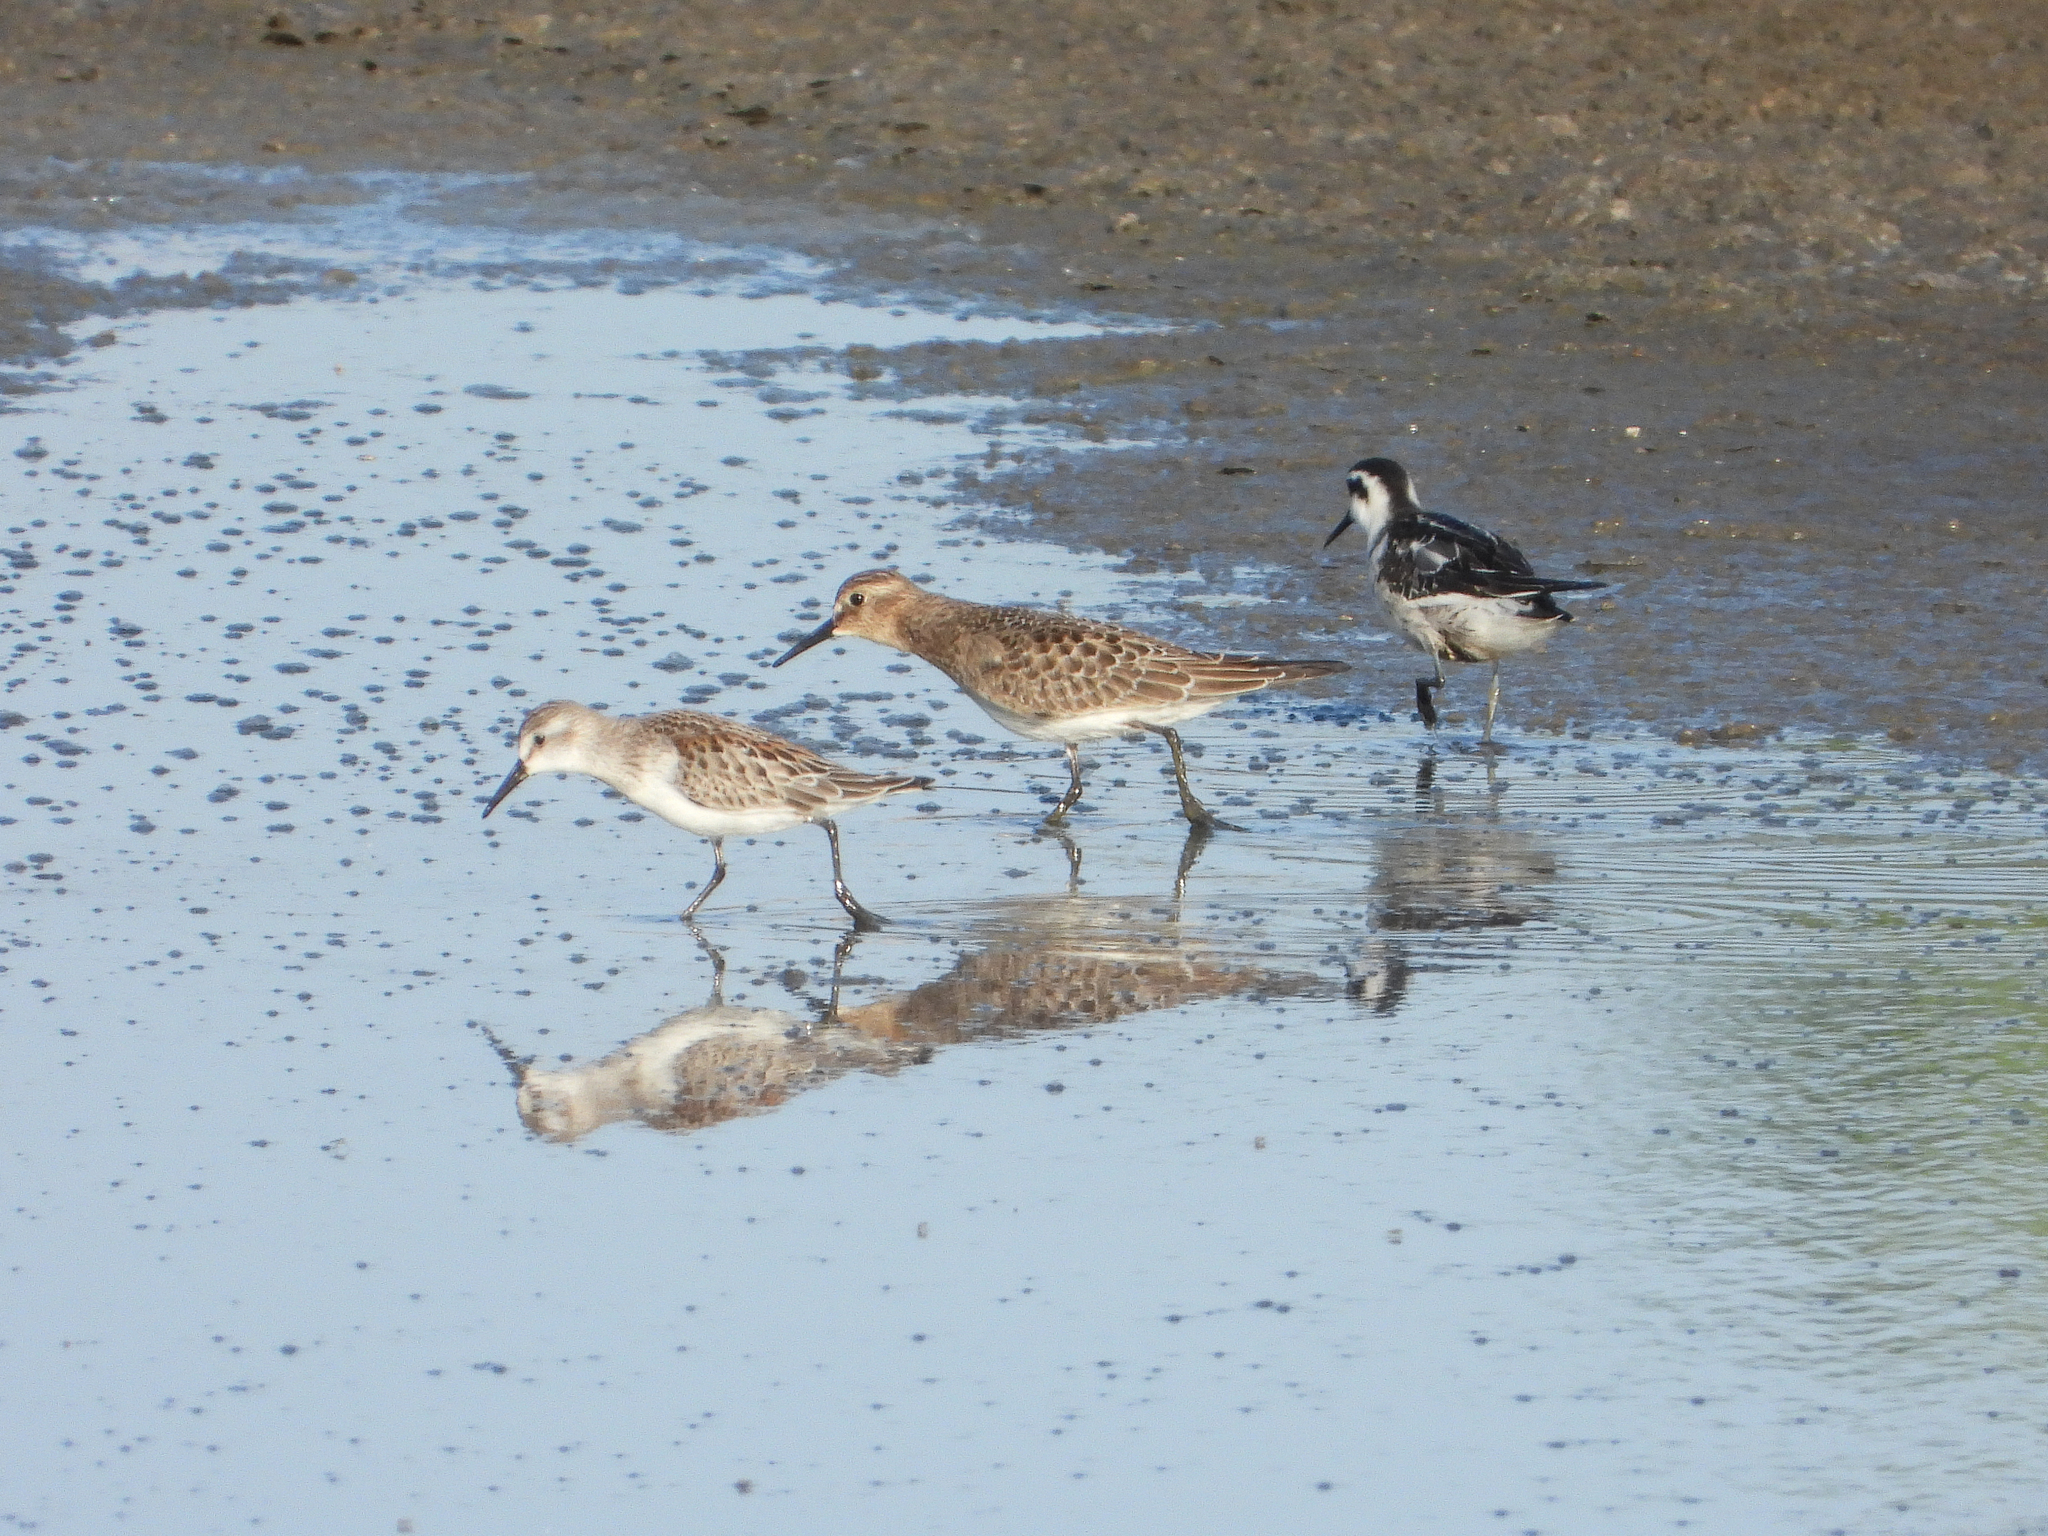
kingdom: Animalia
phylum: Chordata
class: Aves
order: Charadriiformes
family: Scolopacidae
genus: Calidris
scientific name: Calidris mauri
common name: Western sandpiper
